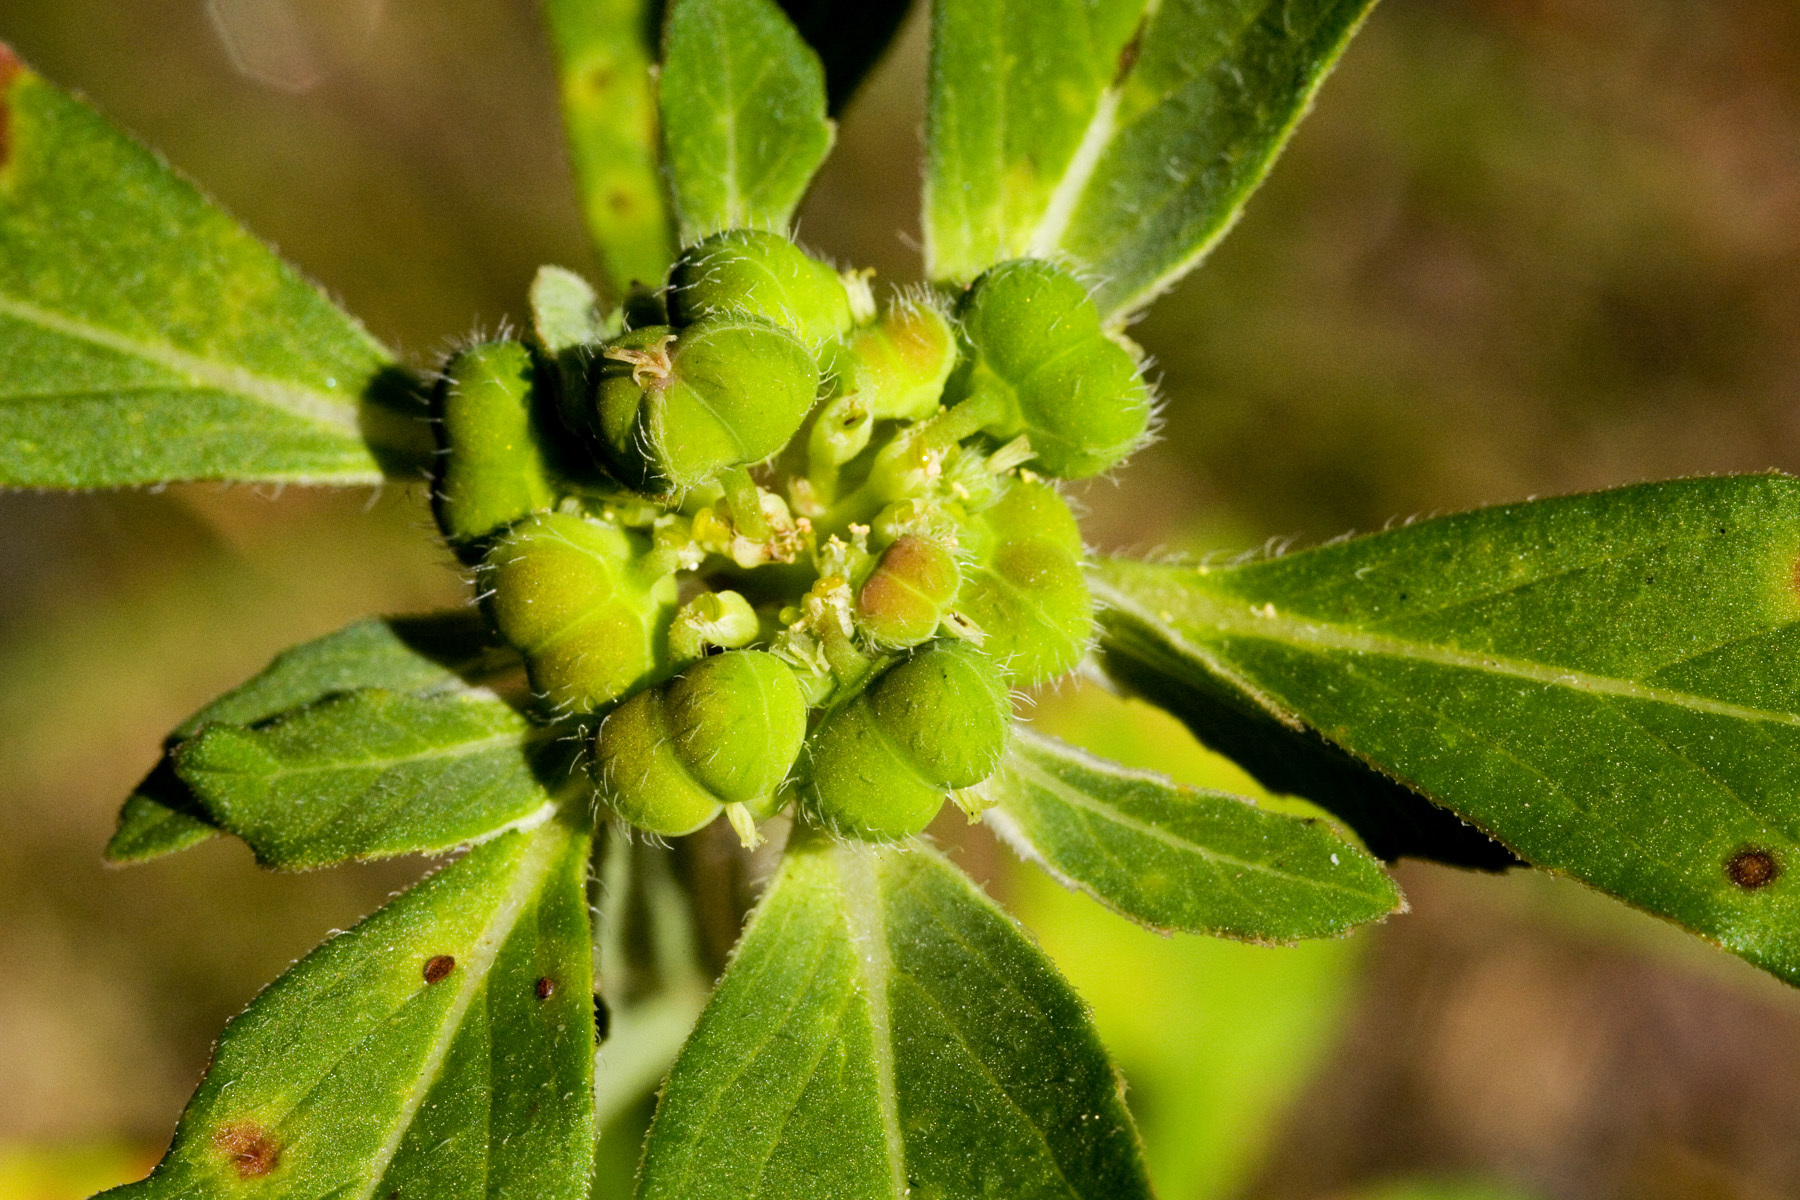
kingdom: Plantae
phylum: Tracheophyta
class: Magnoliopsida
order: Malpighiales
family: Euphorbiaceae
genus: Euphorbia
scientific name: Euphorbia cuphosperma
